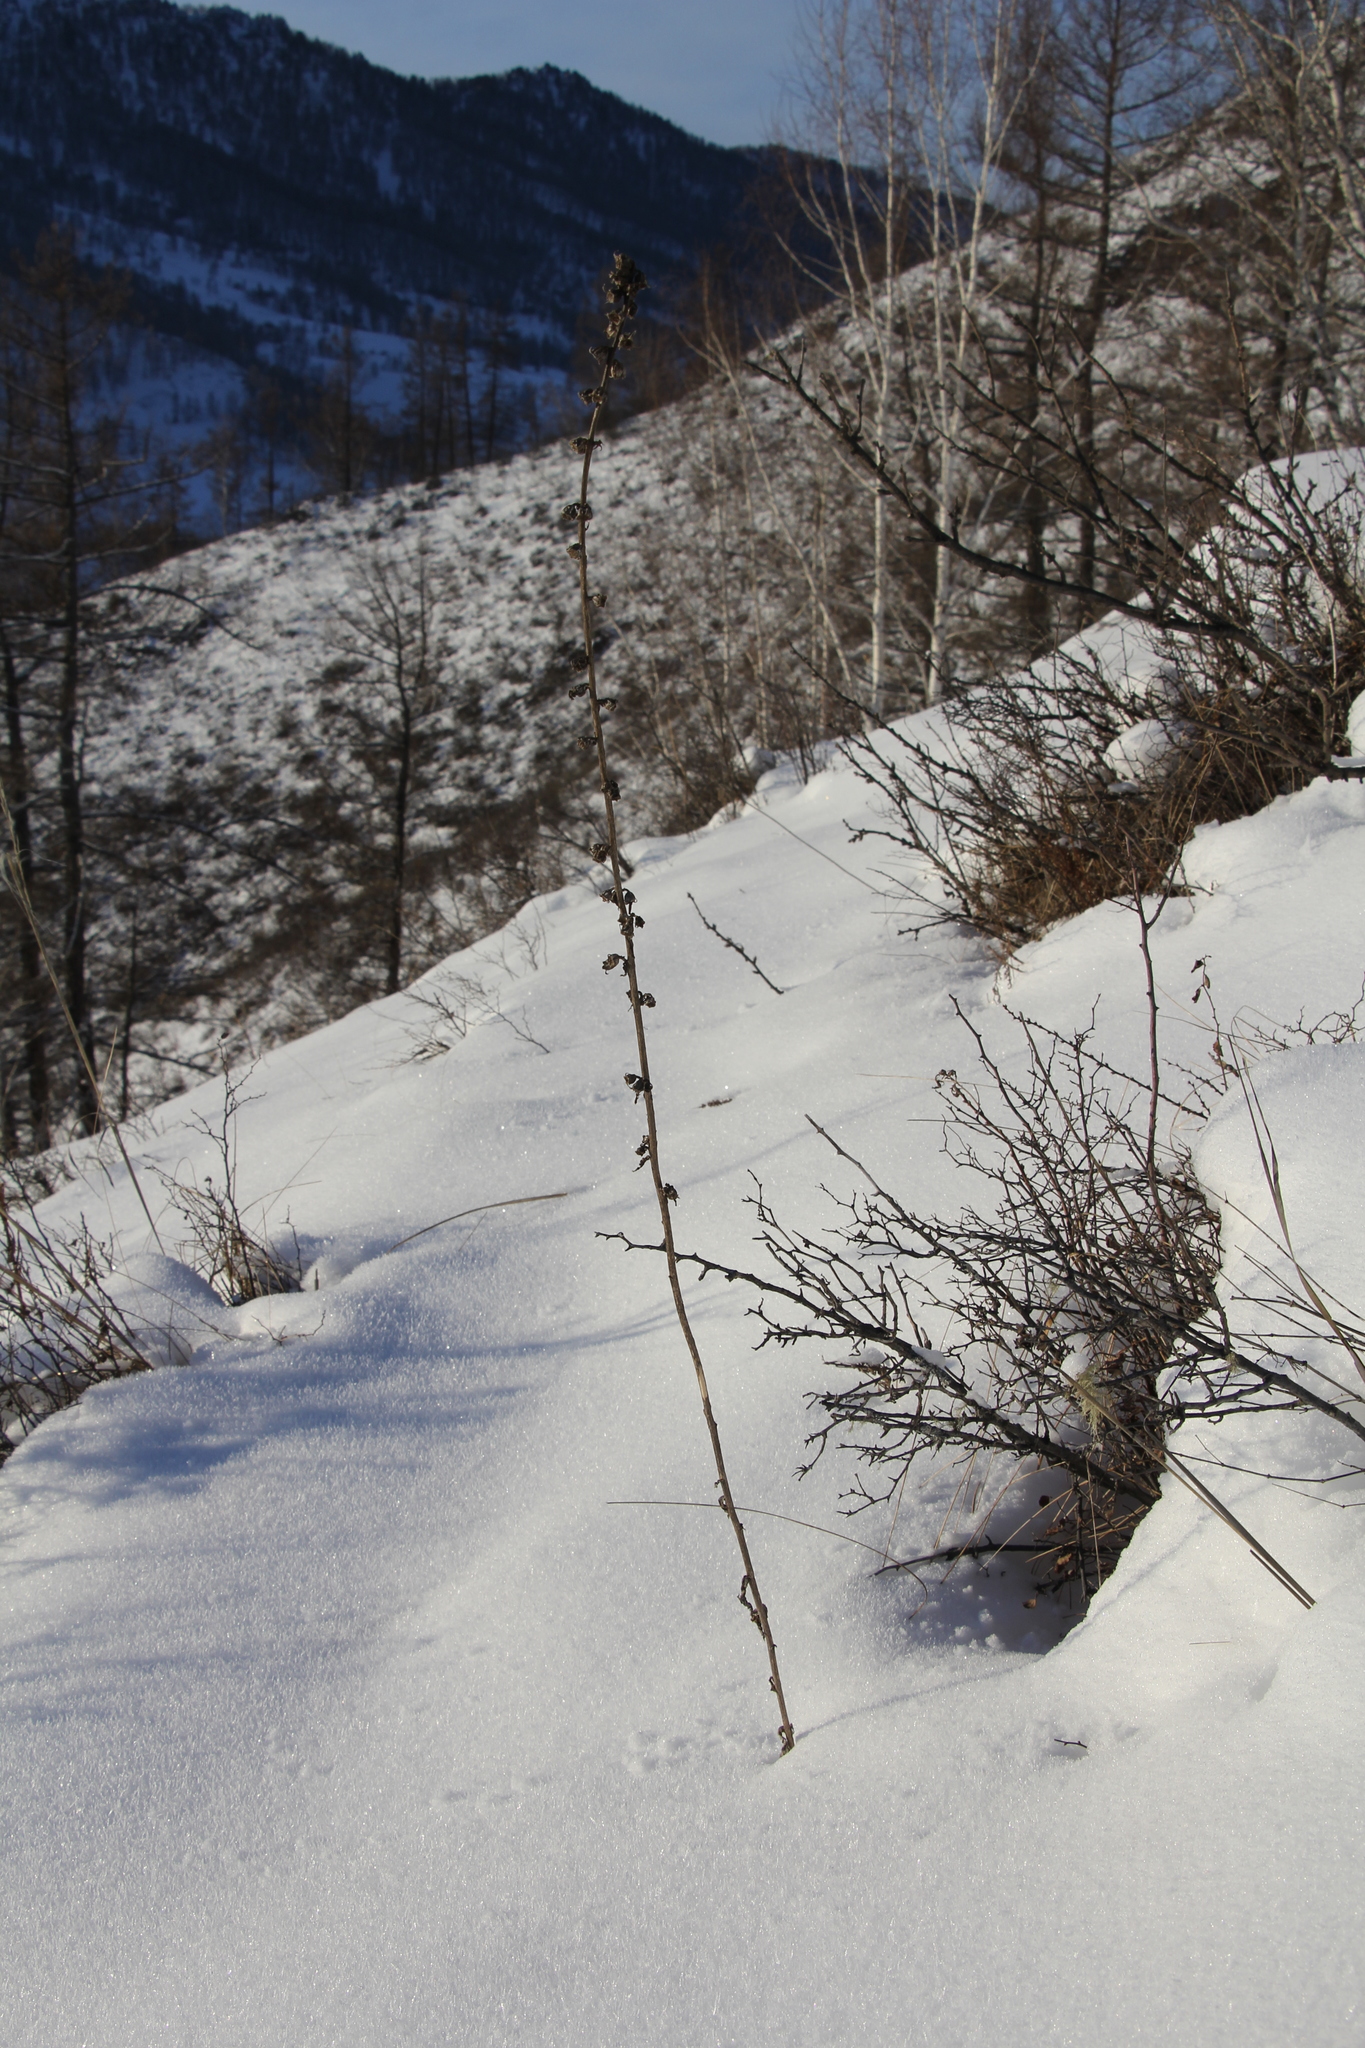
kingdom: Plantae
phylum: Tracheophyta
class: Magnoliopsida
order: Asterales
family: Campanulaceae
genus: Campanula
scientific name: Campanula bononiensis
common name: Pale bellflower
